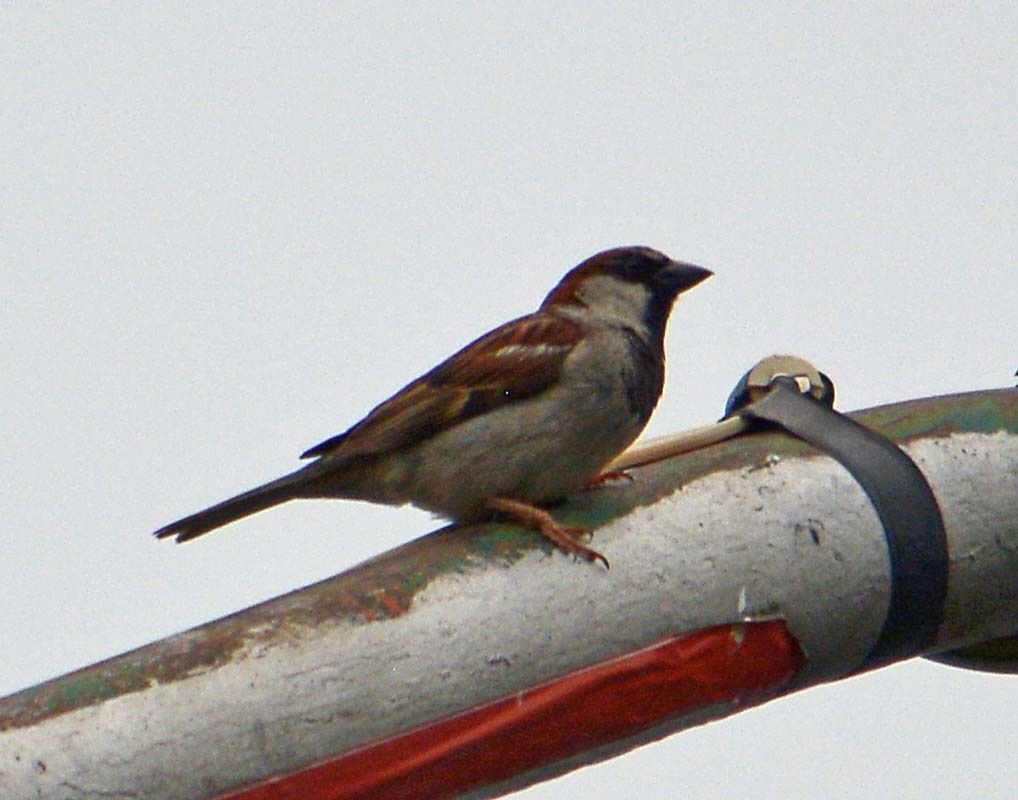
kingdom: Animalia
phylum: Chordata
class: Aves
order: Passeriformes
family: Passeridae
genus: Passer
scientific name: Passer domesticus
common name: House sparrow
